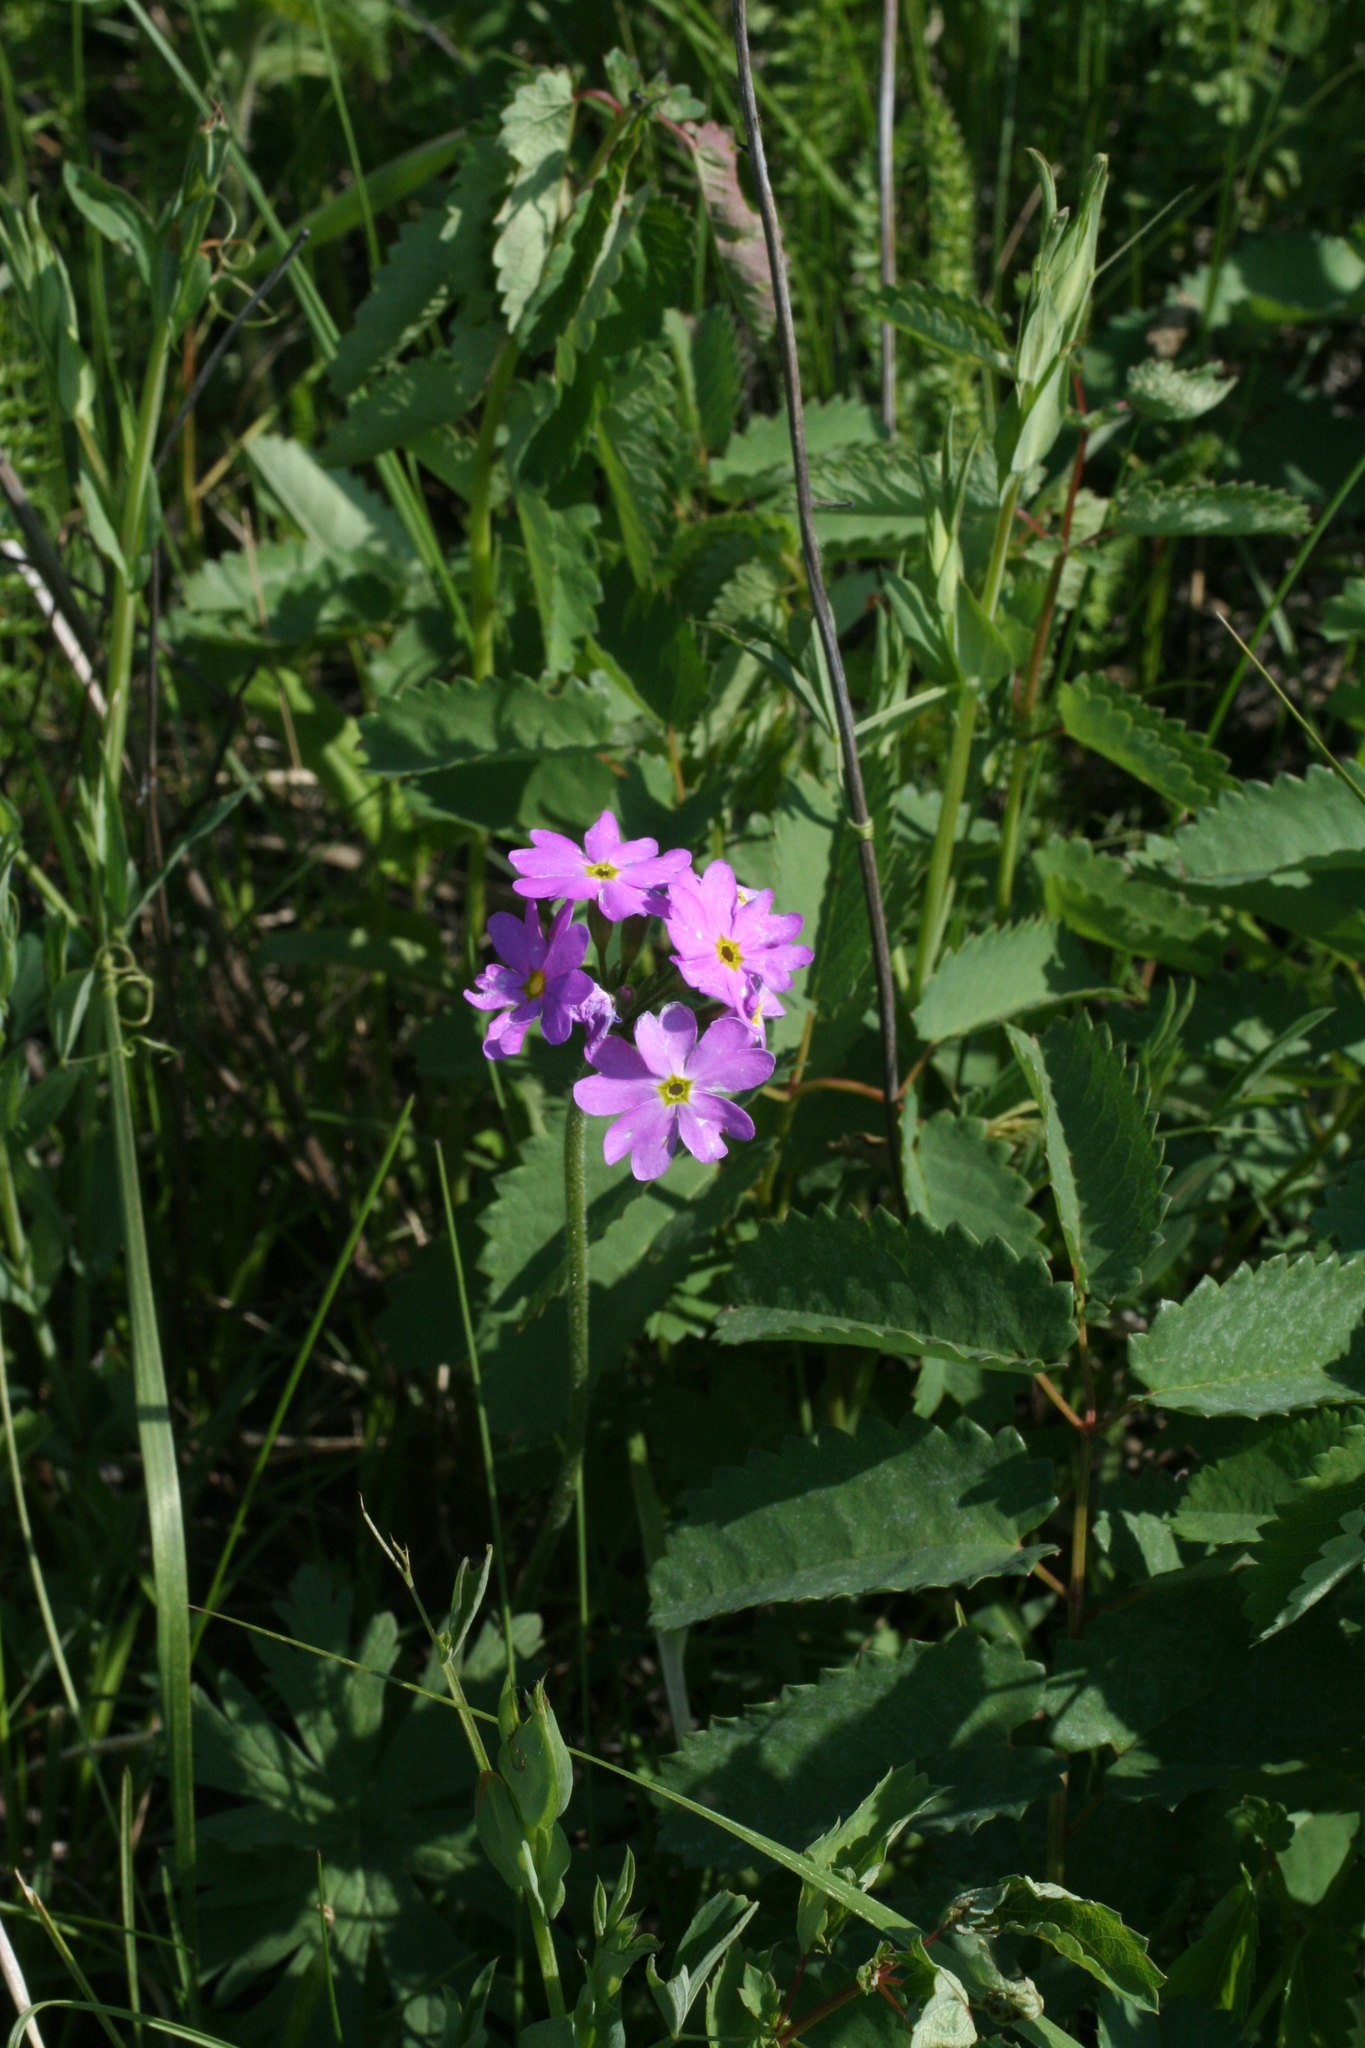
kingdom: Plantae
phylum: Tracheophyta
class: Magnoliopsida
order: Ericales
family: Primulaceae
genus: Primula
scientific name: Primula cortusoides
